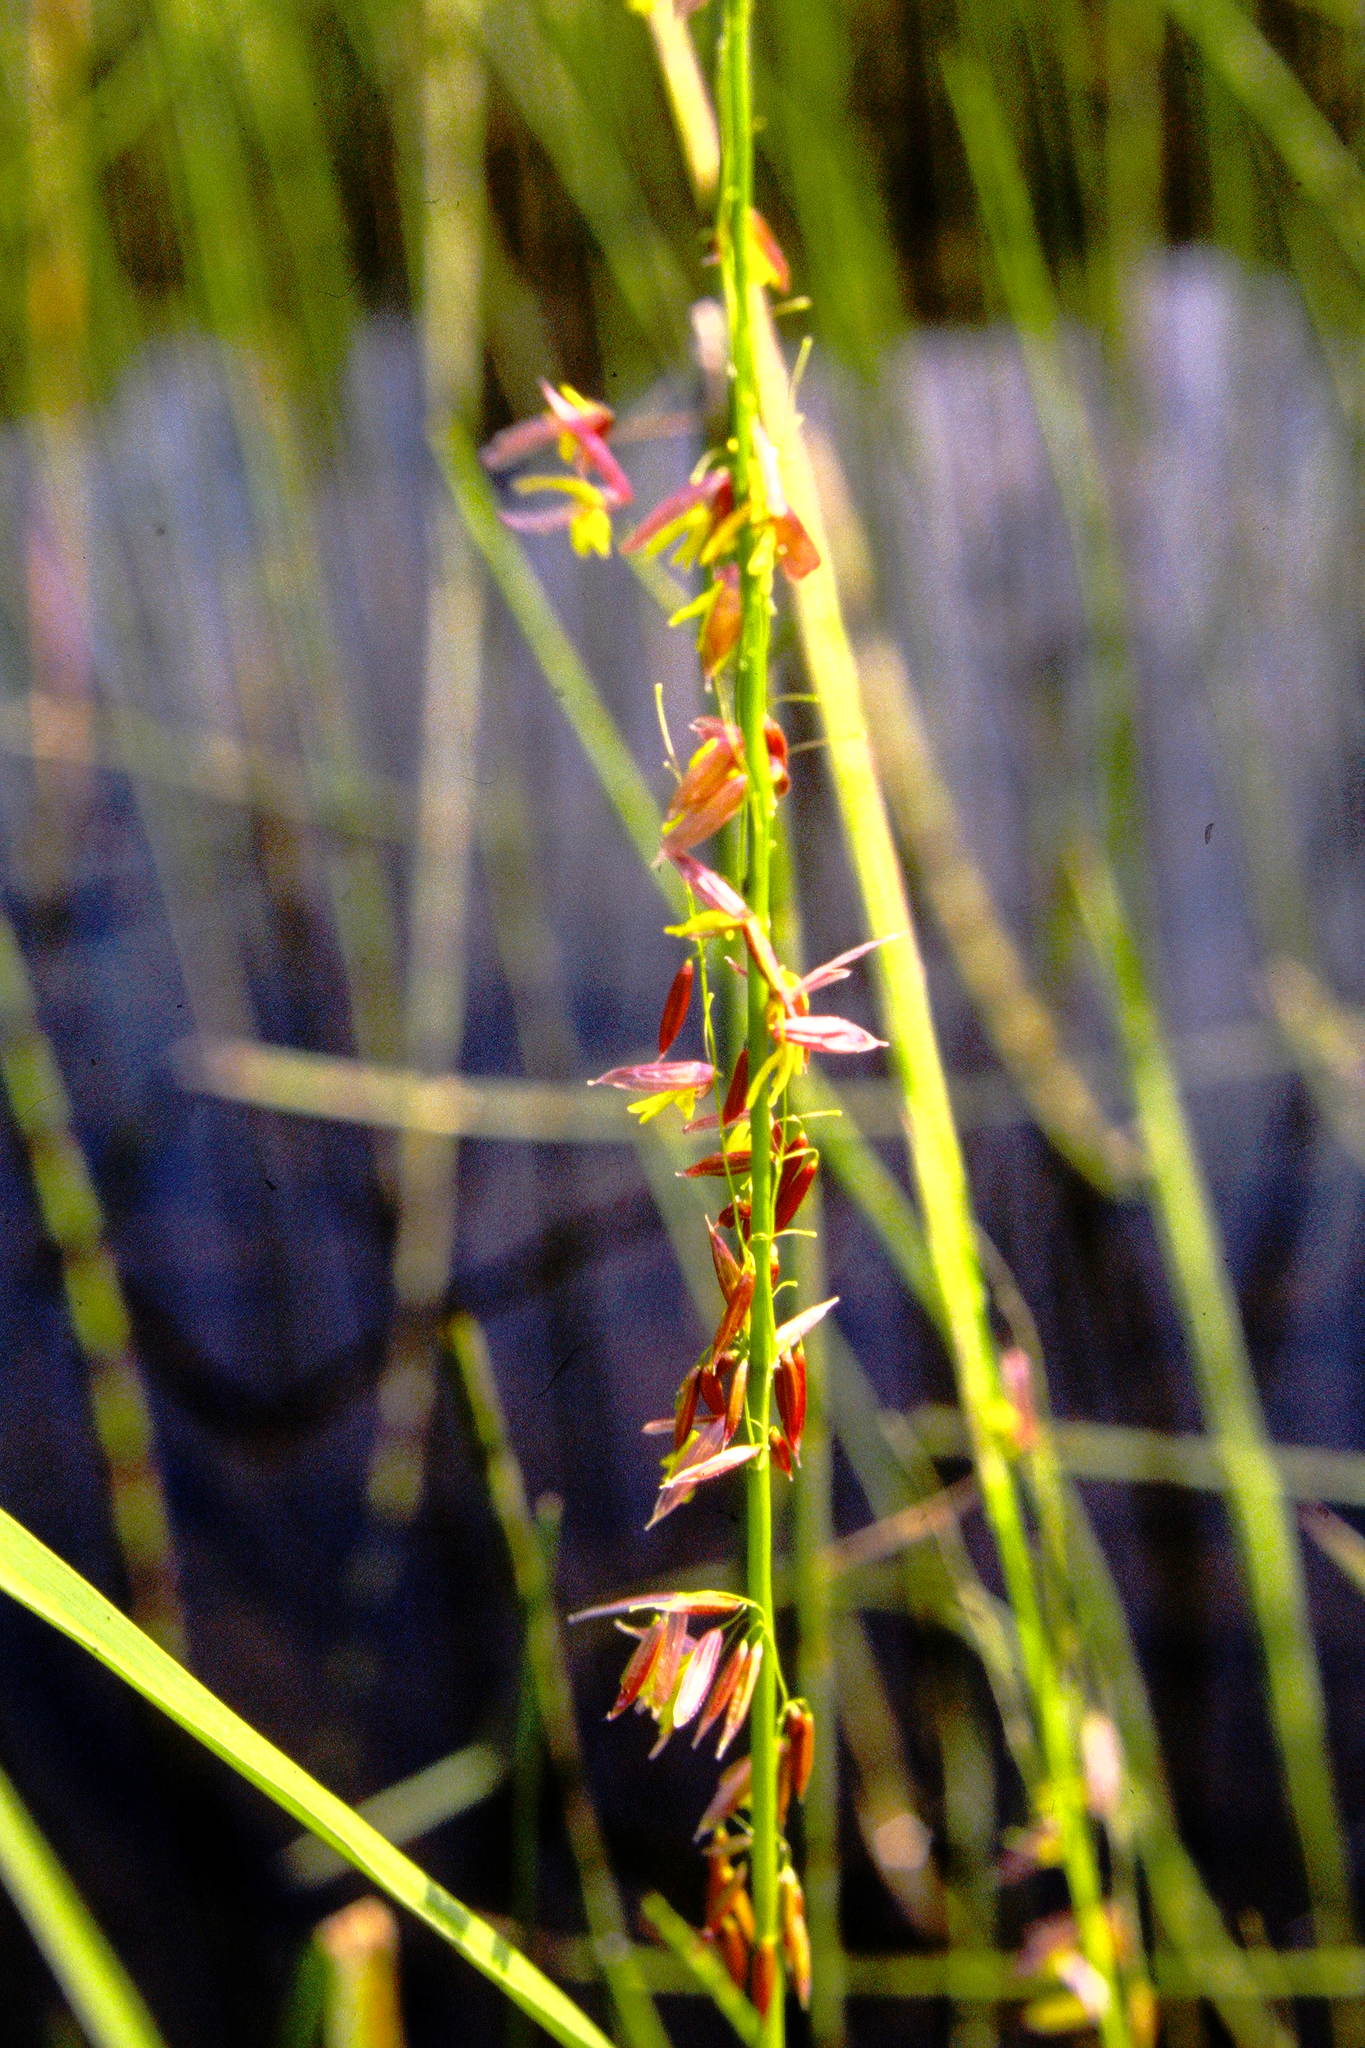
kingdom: Plantae
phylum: Tracheophyta
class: Liliopsida
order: Poales
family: Poaceae
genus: Zizania
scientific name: Zizania palustris
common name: Northern wild rice
